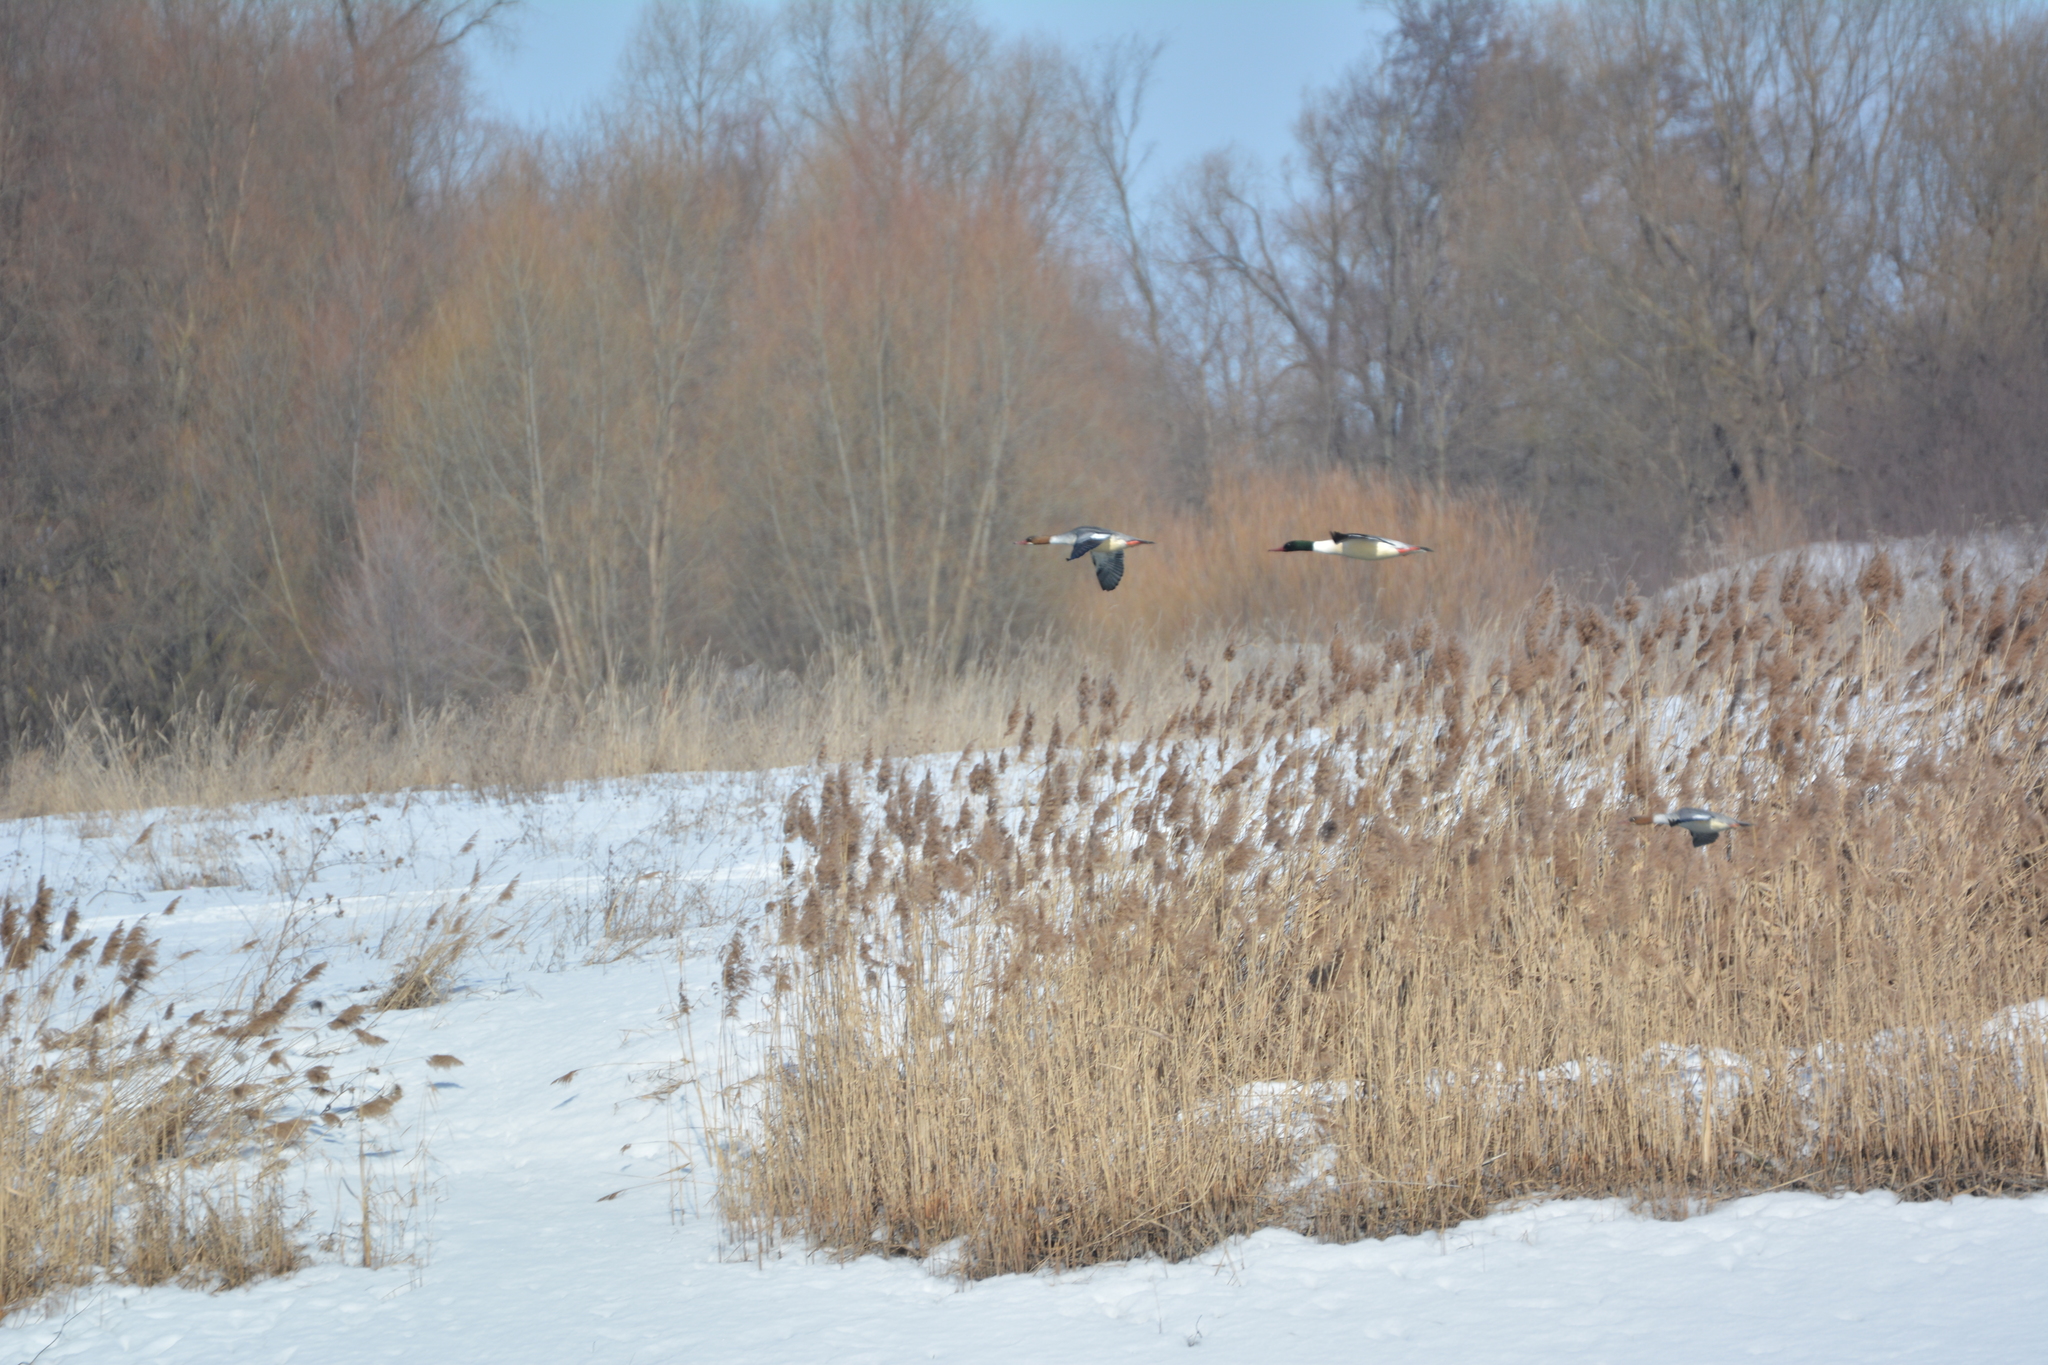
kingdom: Animalia
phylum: Chordata
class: Aves
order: Anseriformes
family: Anatidae
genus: Mergus
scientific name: Mergus merganser
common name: Common merganser
